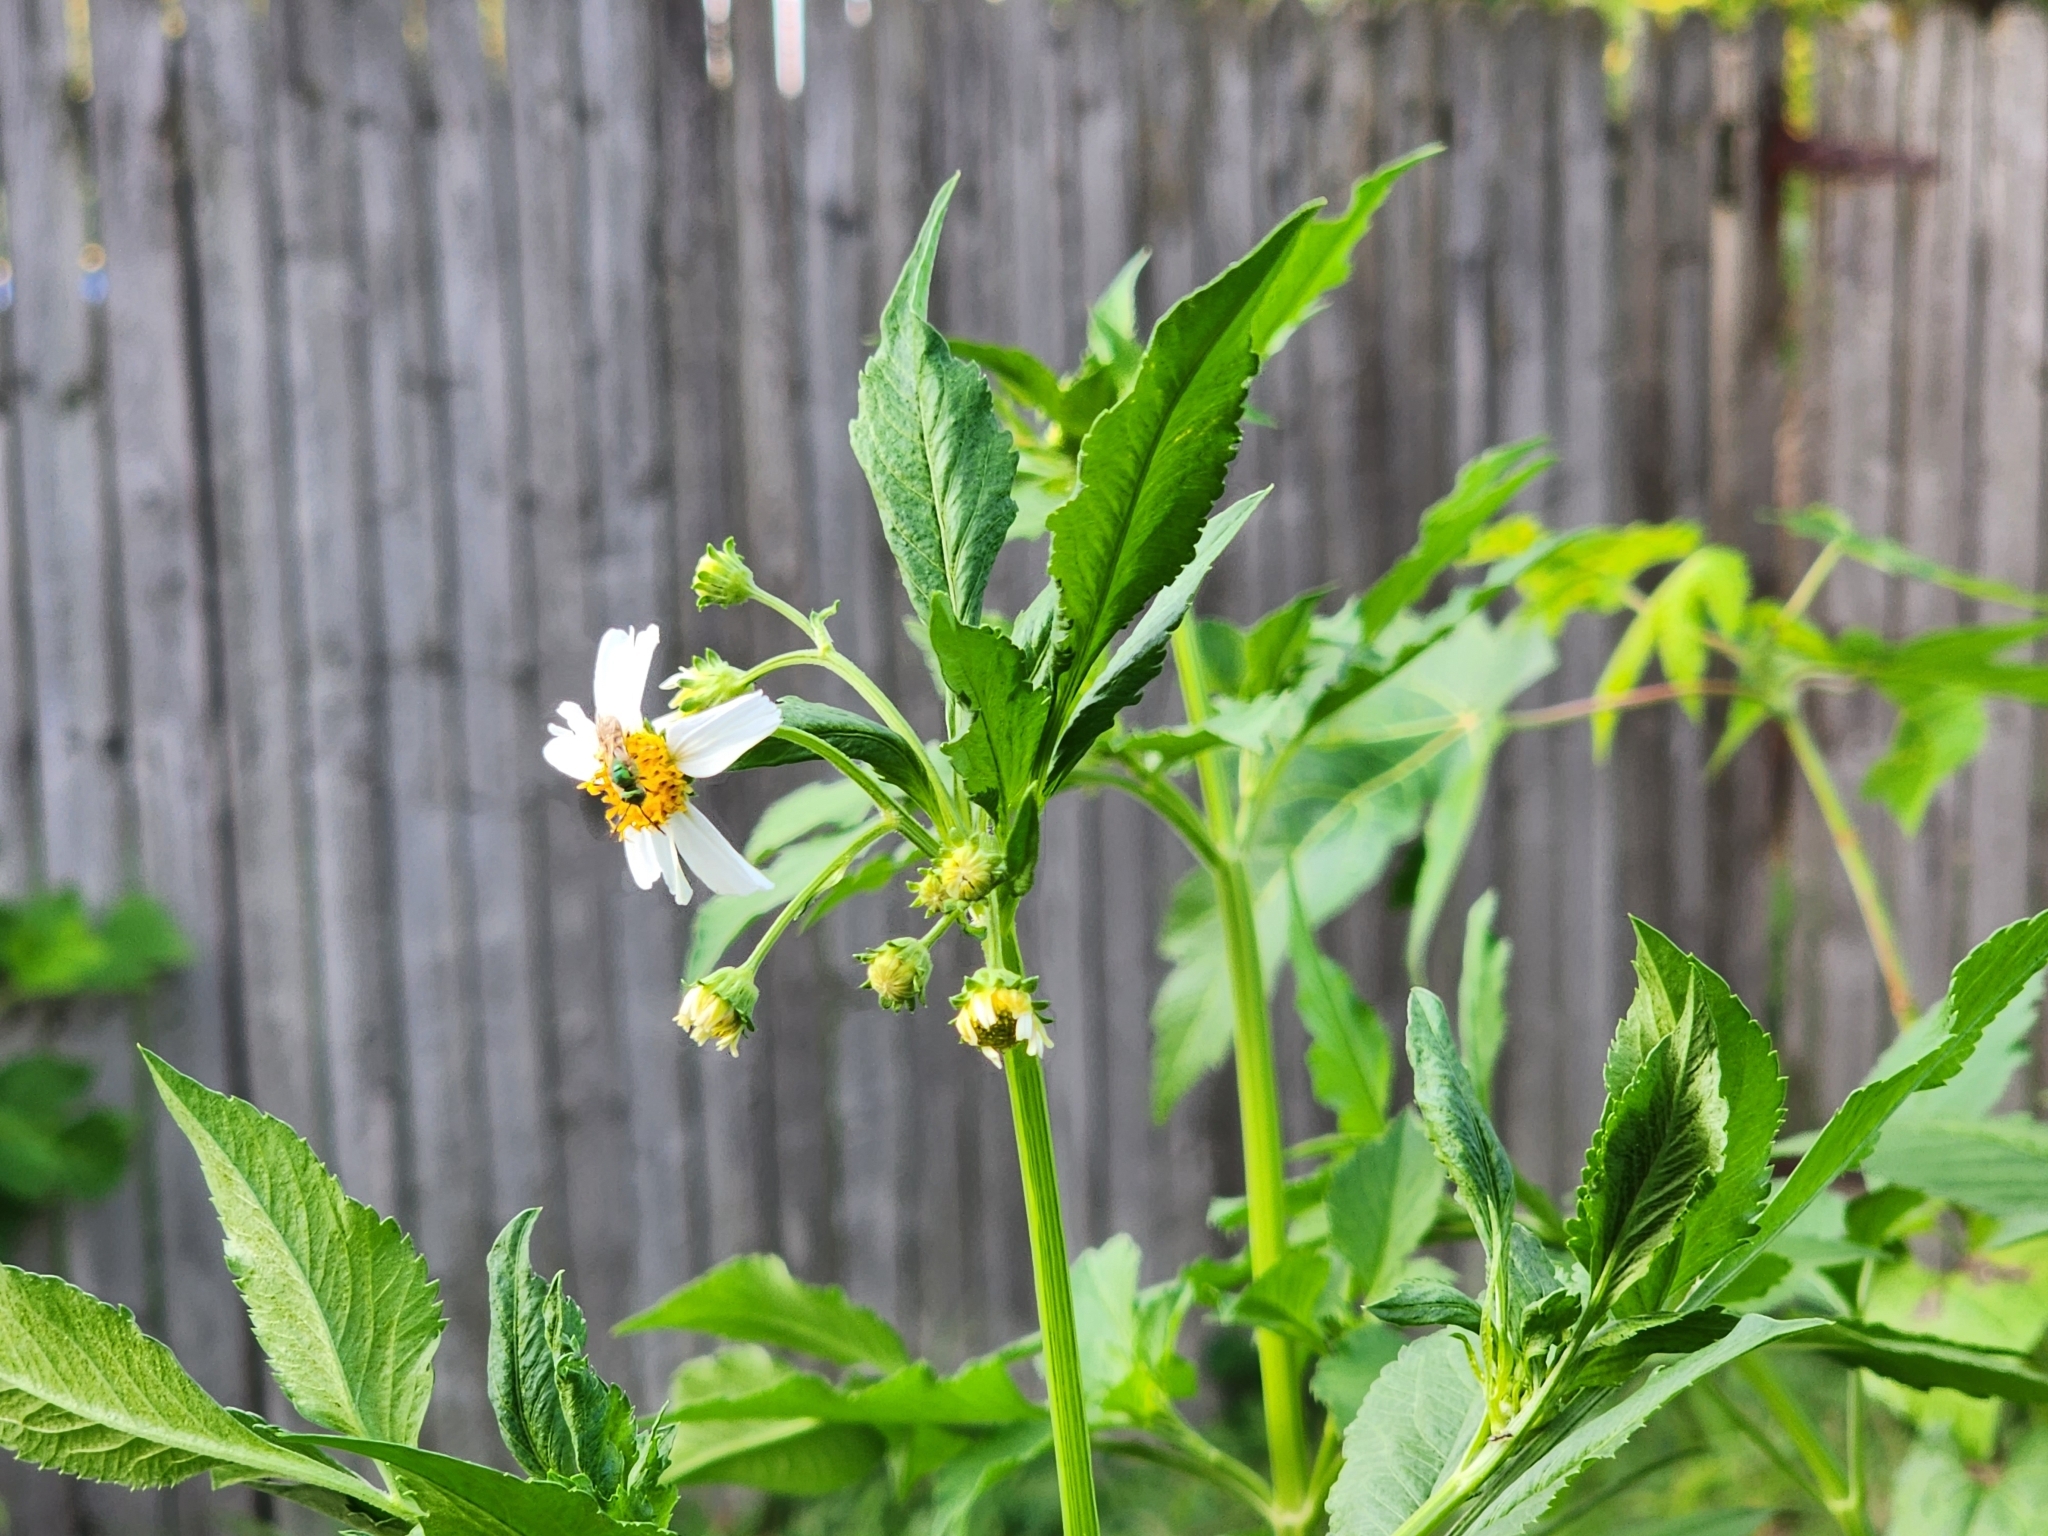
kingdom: Animalia
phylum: Arthropoda
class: Insecta
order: Hymenoptera
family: Halictidae
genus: Agapostemon
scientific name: Agapostemon
